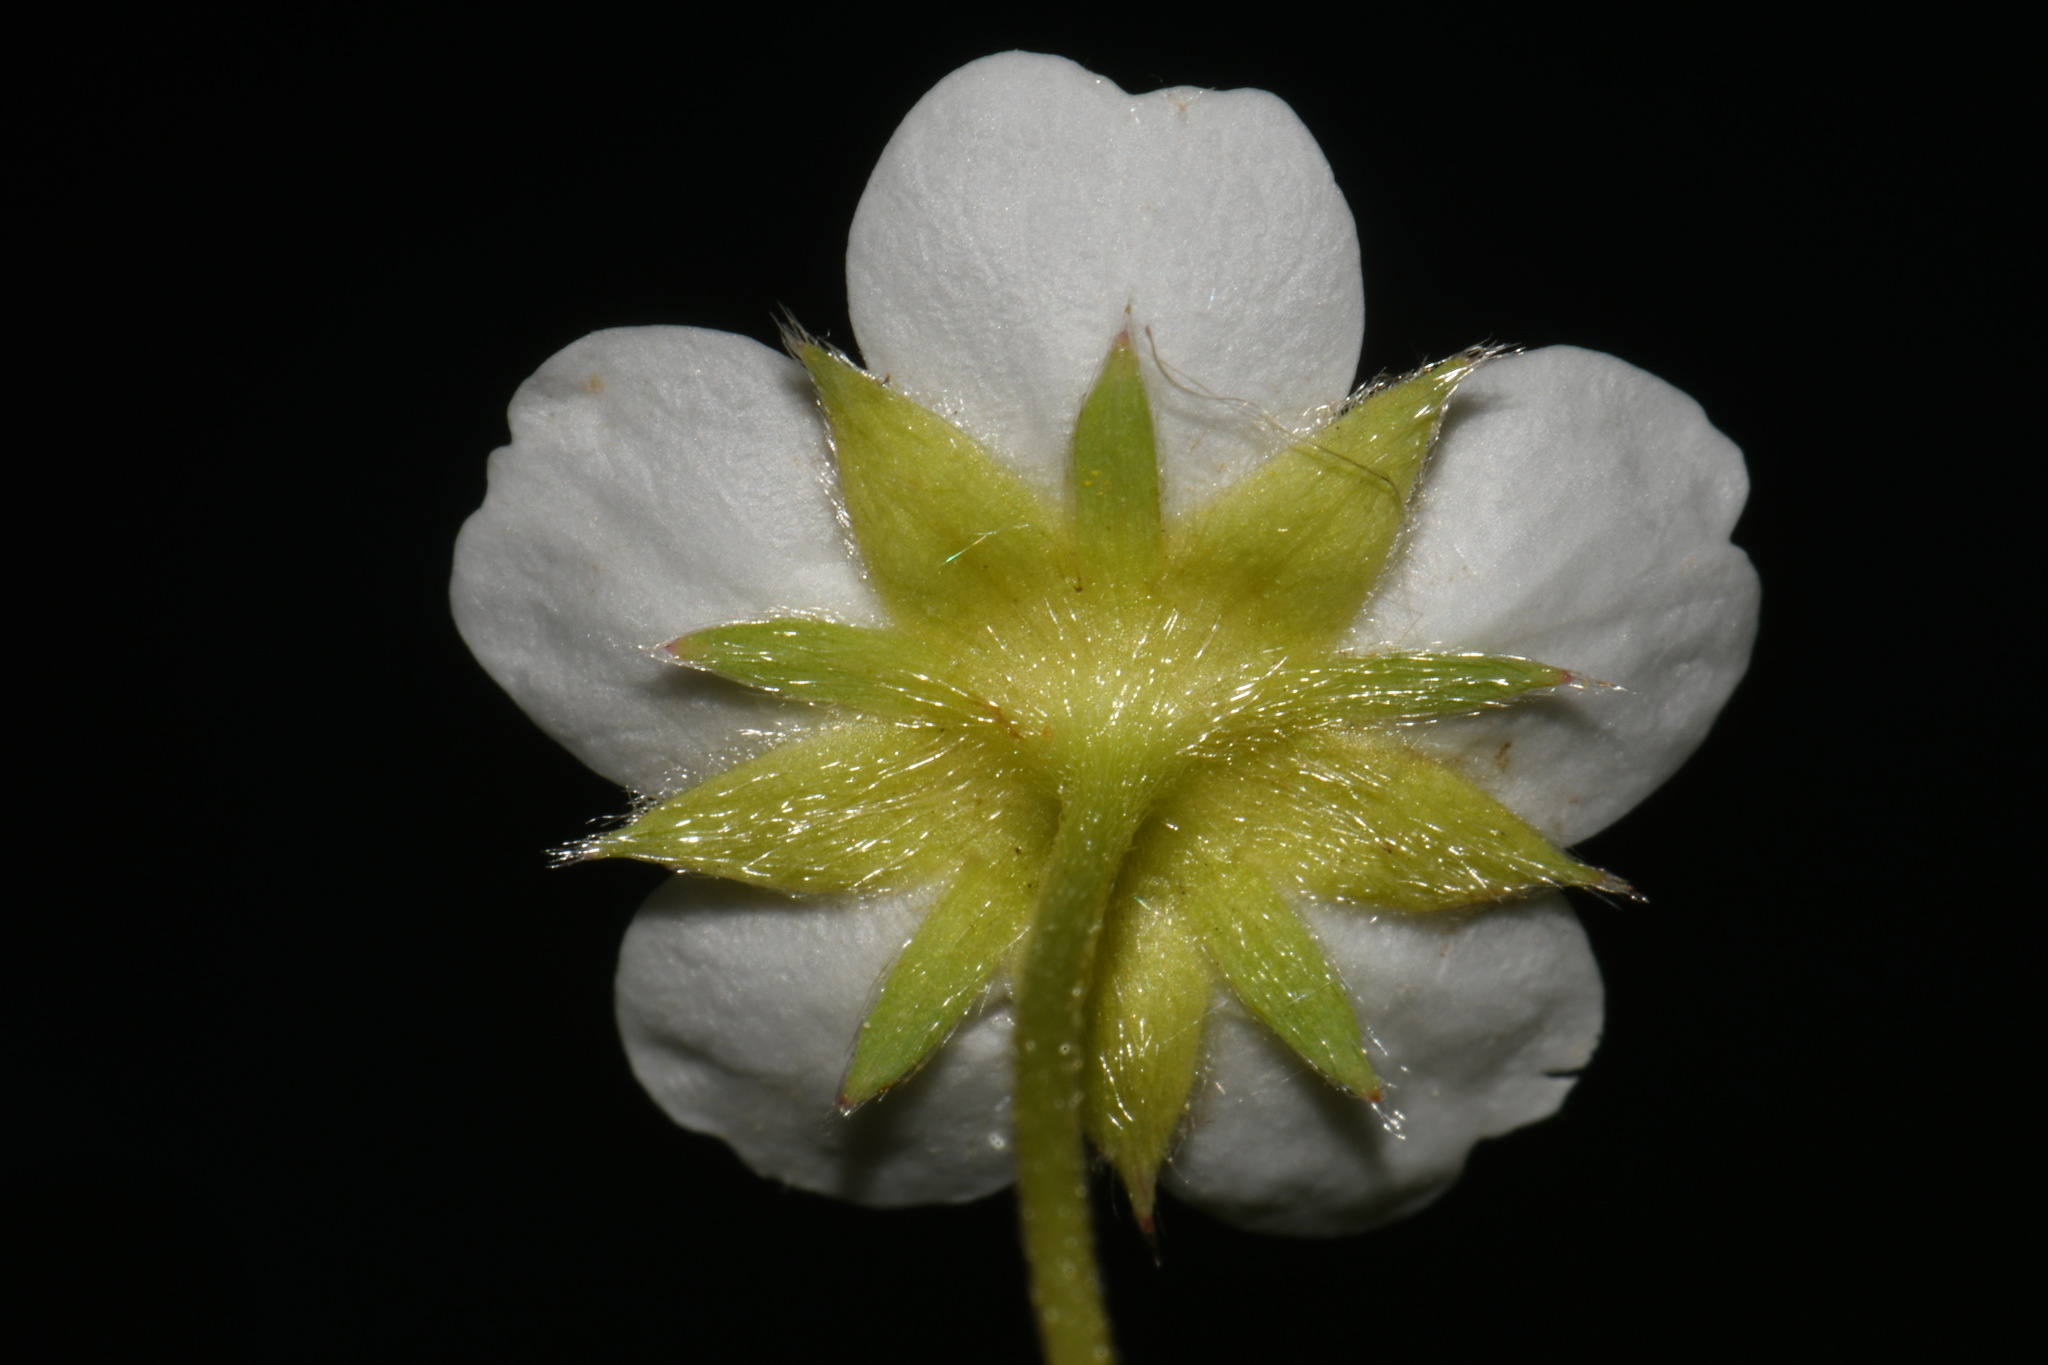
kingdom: Plantae
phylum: Tracheophyta
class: Magnoliopsida
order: Rosales
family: Rosaceae
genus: Fragaria
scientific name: Fragaria virginiana
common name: Thickleaved wild strawberry
